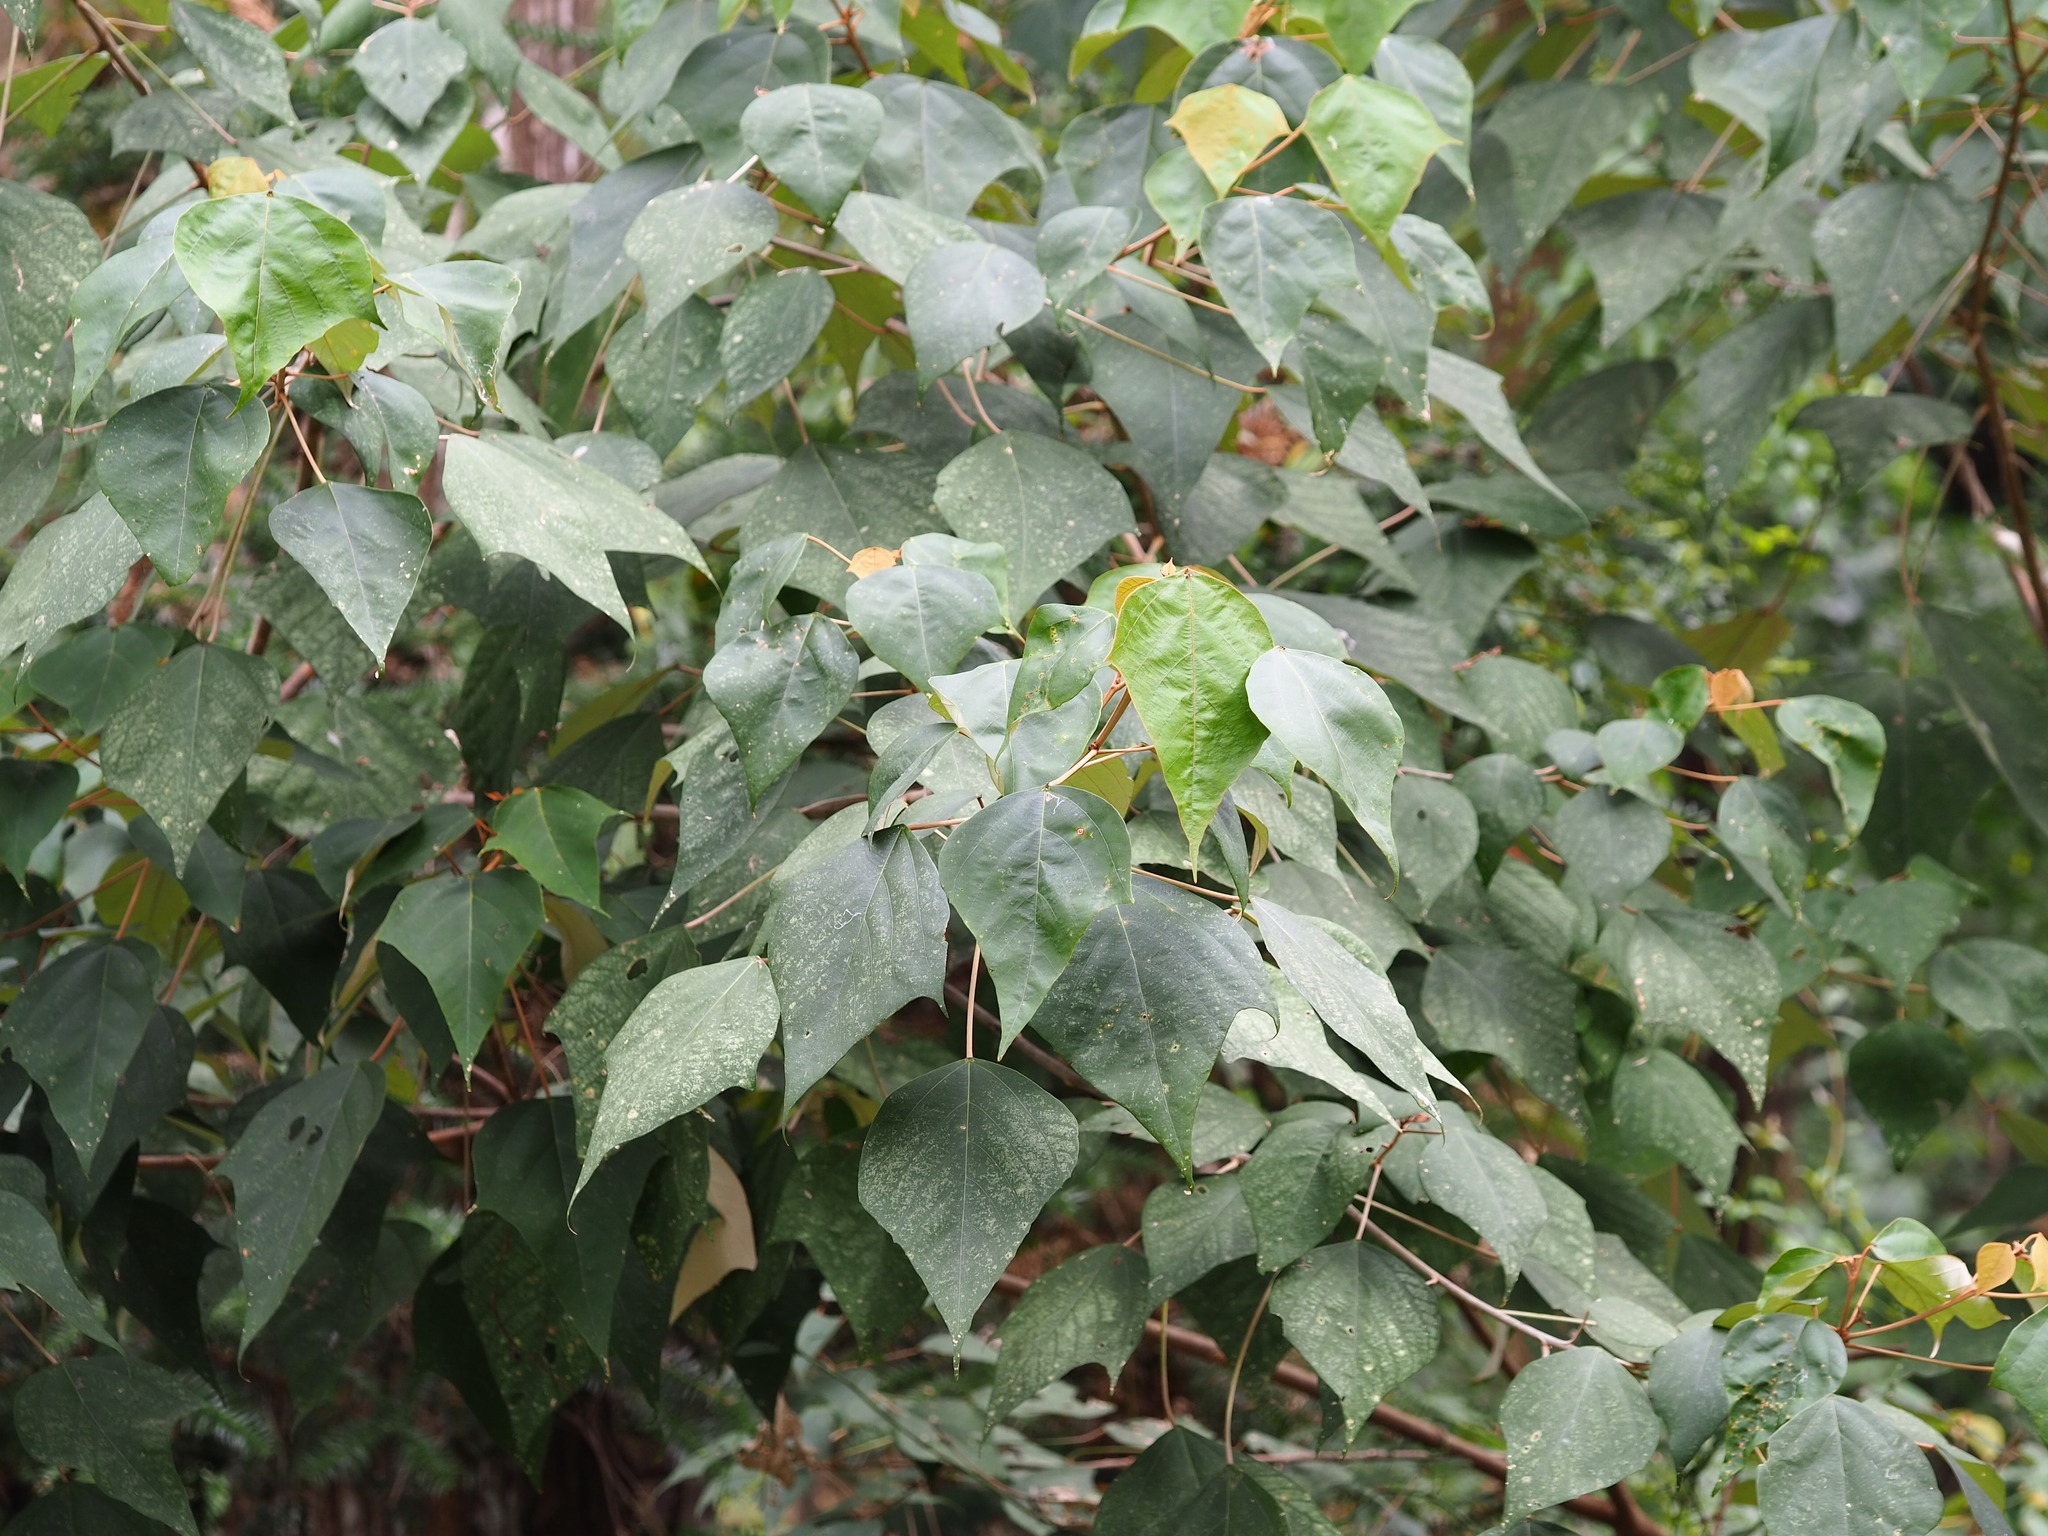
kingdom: Plantae
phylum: Tracheophyta
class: Magnoliopsida
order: Malpighiales
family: Euphorbiaceae
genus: Mallotus
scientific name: Mallotus paniculatus
